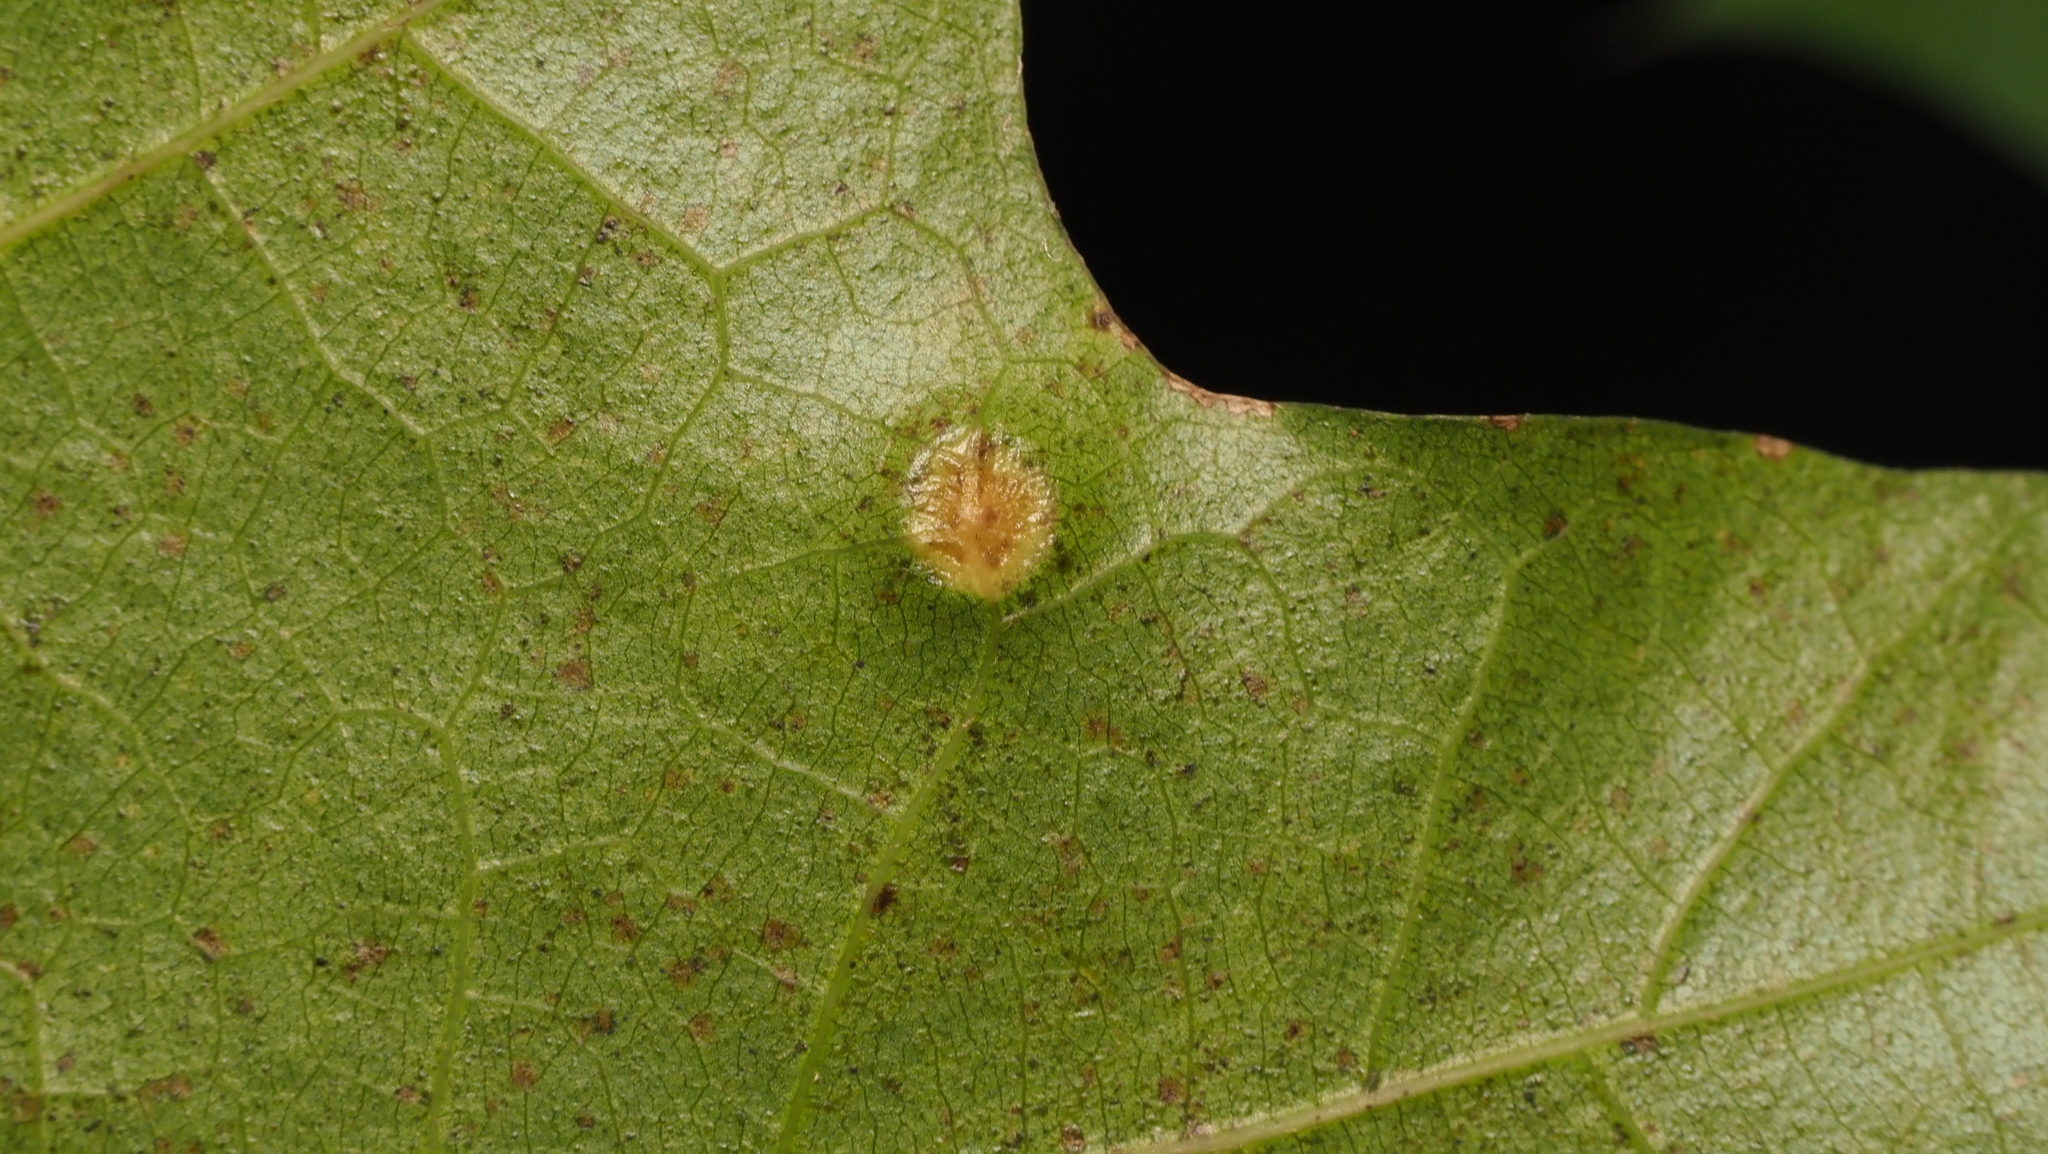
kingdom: Animalia
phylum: Arthropoda
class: Insecta
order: Diptera
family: Cecidomyiidae
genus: Polystepha
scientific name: Polystepha pilulae
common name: Oak leaf gall midge
